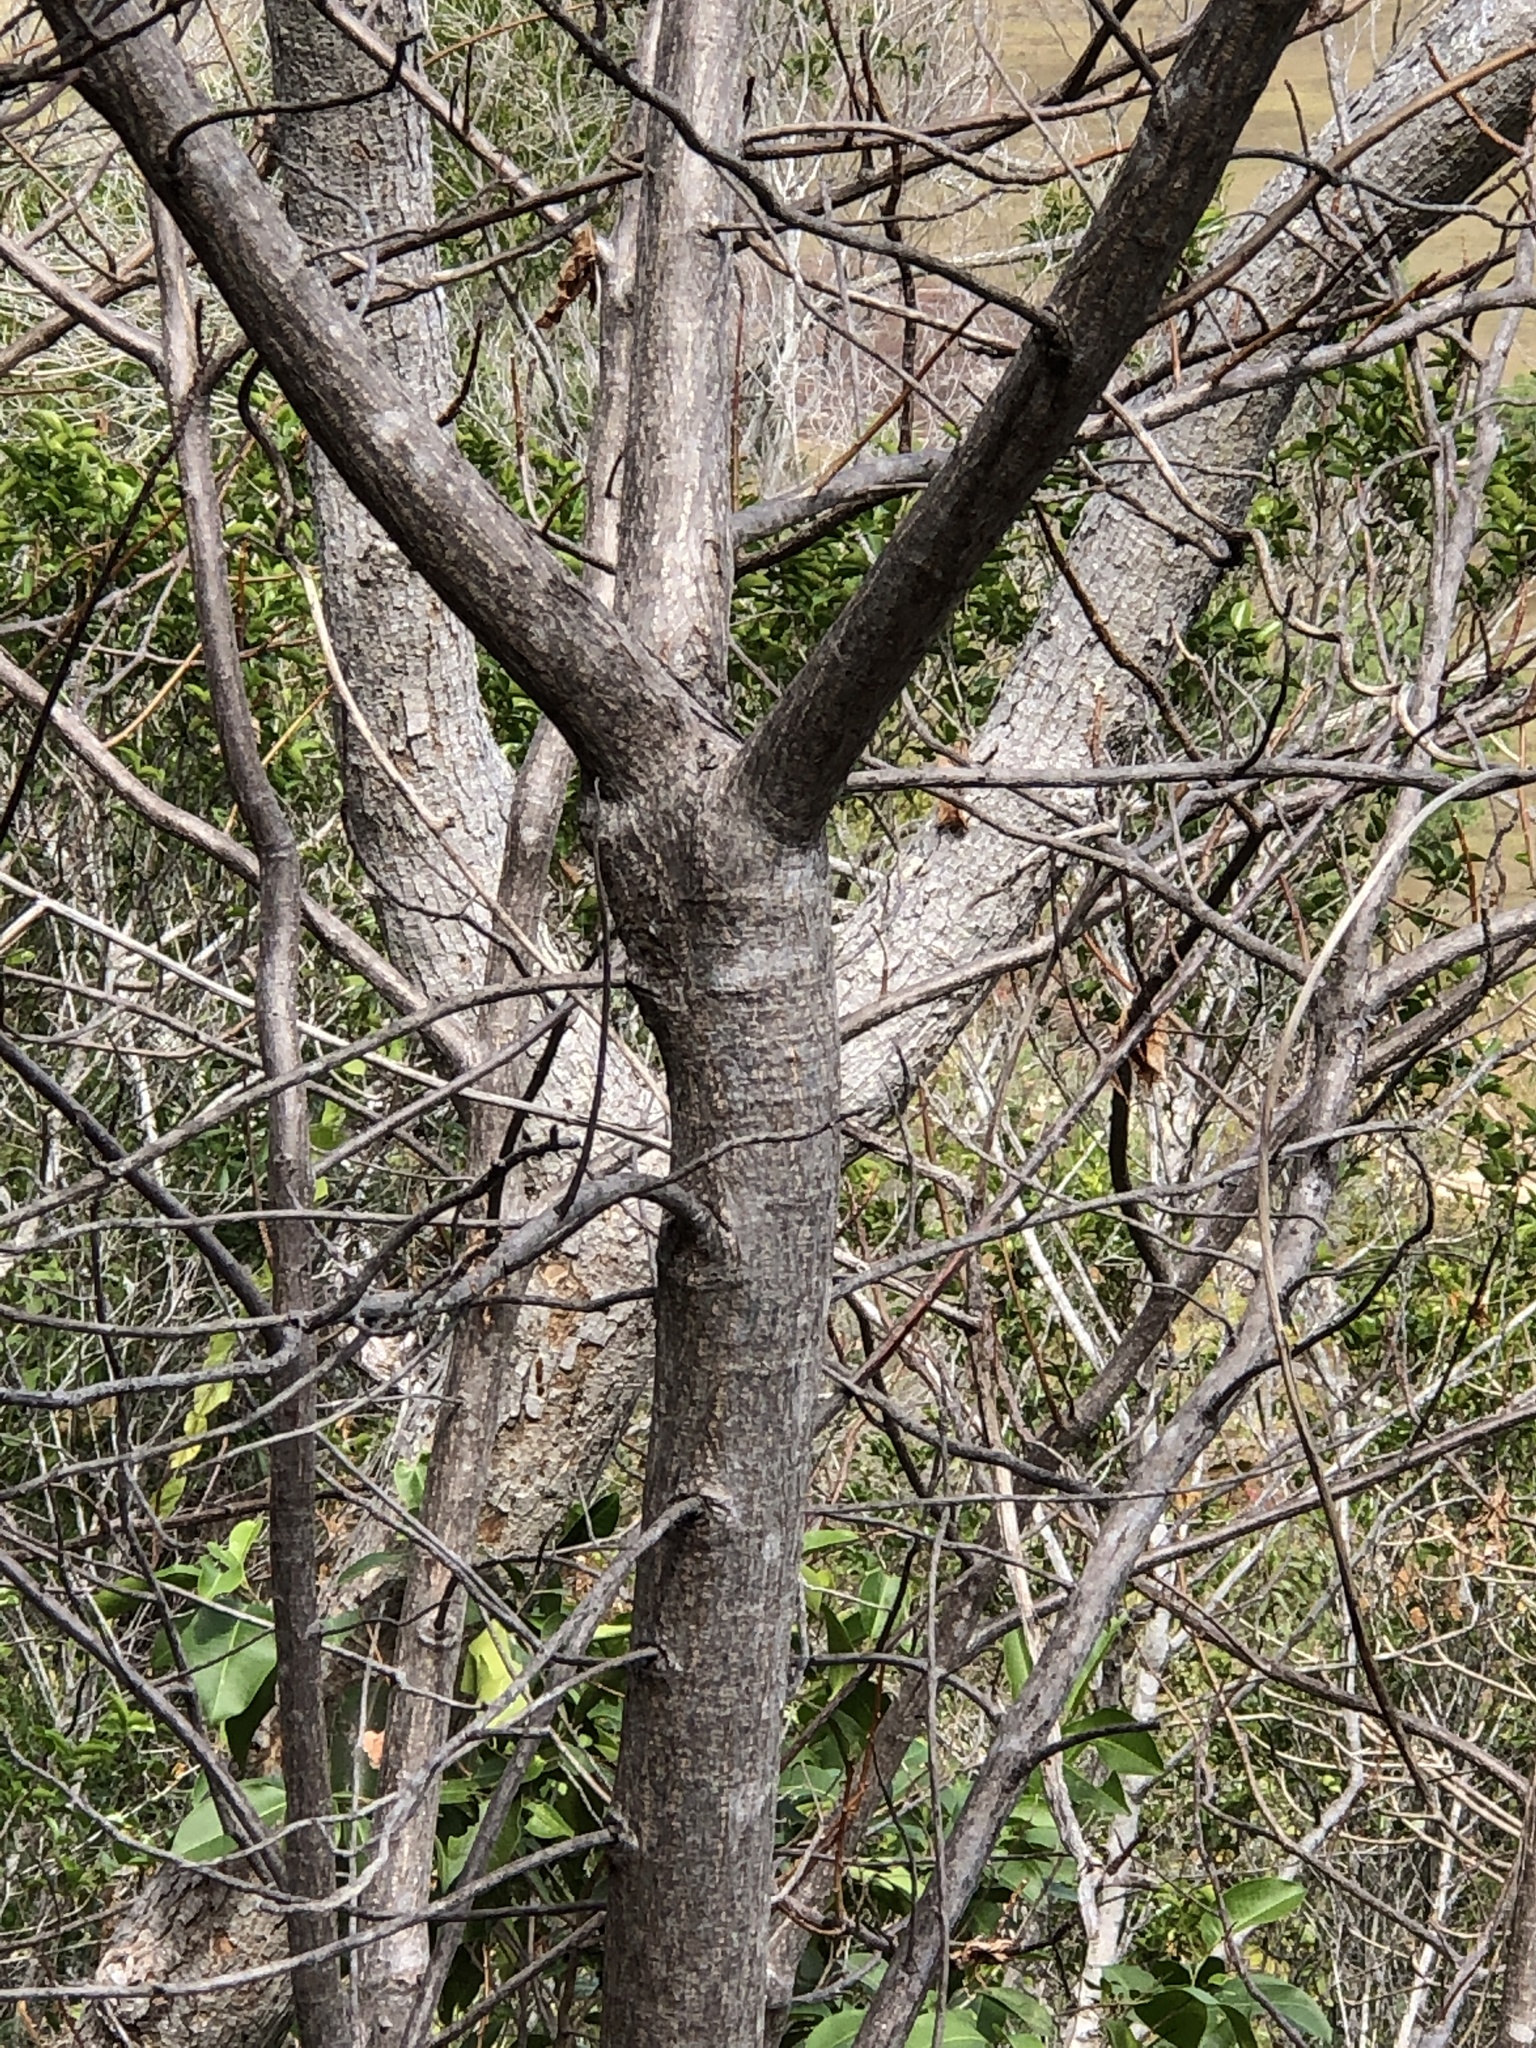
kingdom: Plantae
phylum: Tracheophyta
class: Magnoliopsida
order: Malvales
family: Cochlospermaceae
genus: Cochlospermum
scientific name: Cochlospermum gillivraei
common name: Cottontree
